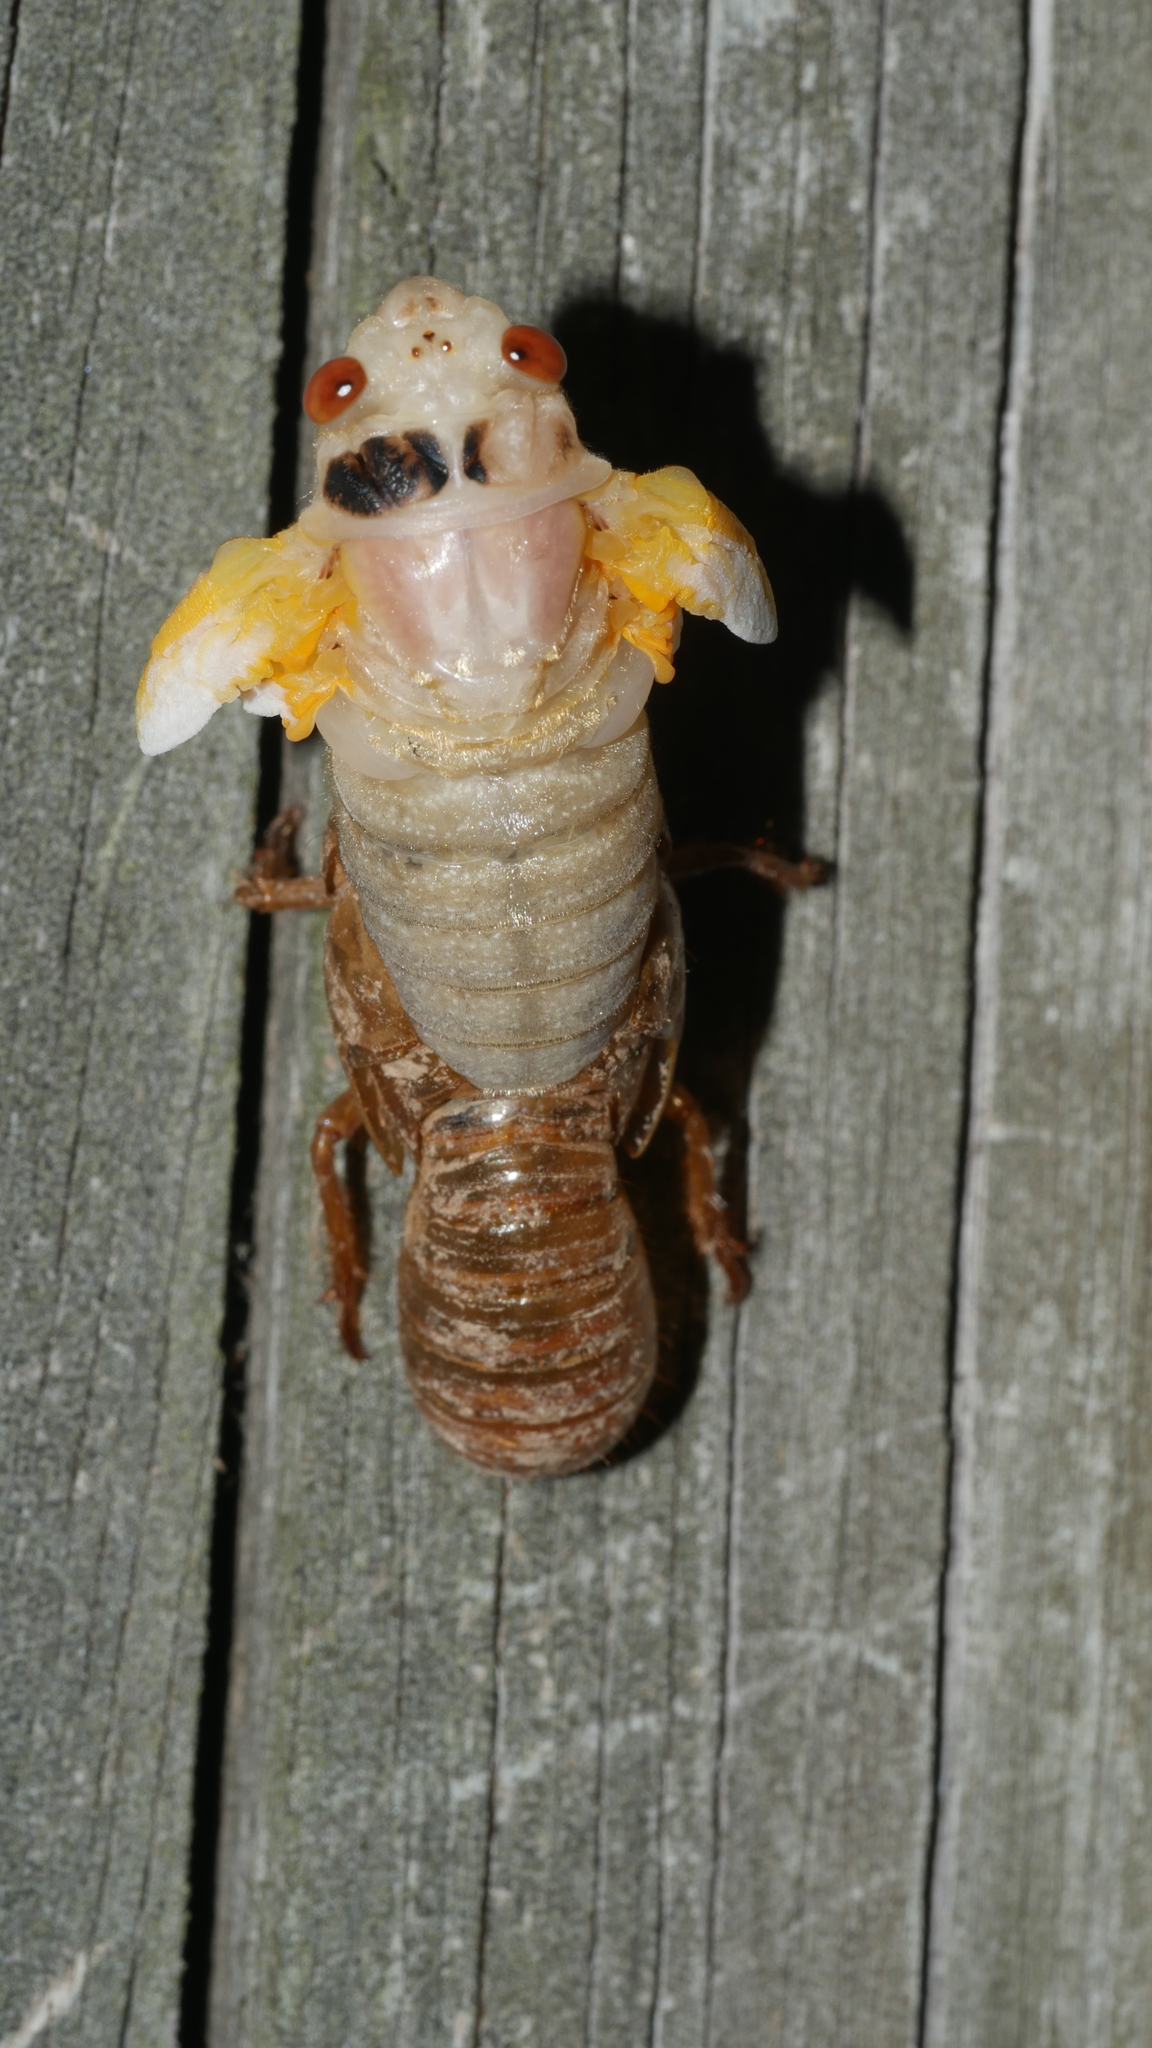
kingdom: Animalia
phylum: Arthropoda
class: Insecta
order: Hemiptera
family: Cicadidae
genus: Magicicada
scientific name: Magicicada
